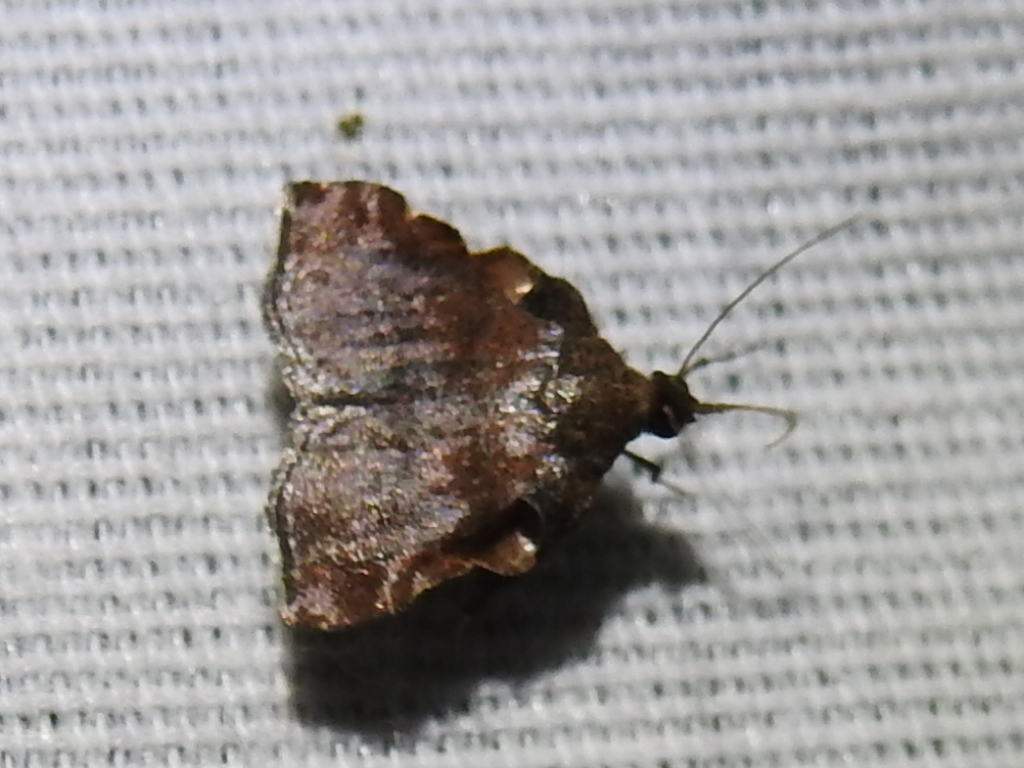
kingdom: Animalia
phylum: Arthropoda
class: Insecta
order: Lepidoptera
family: Pyralidae
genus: Salobrena
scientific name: Salobrena sincera
